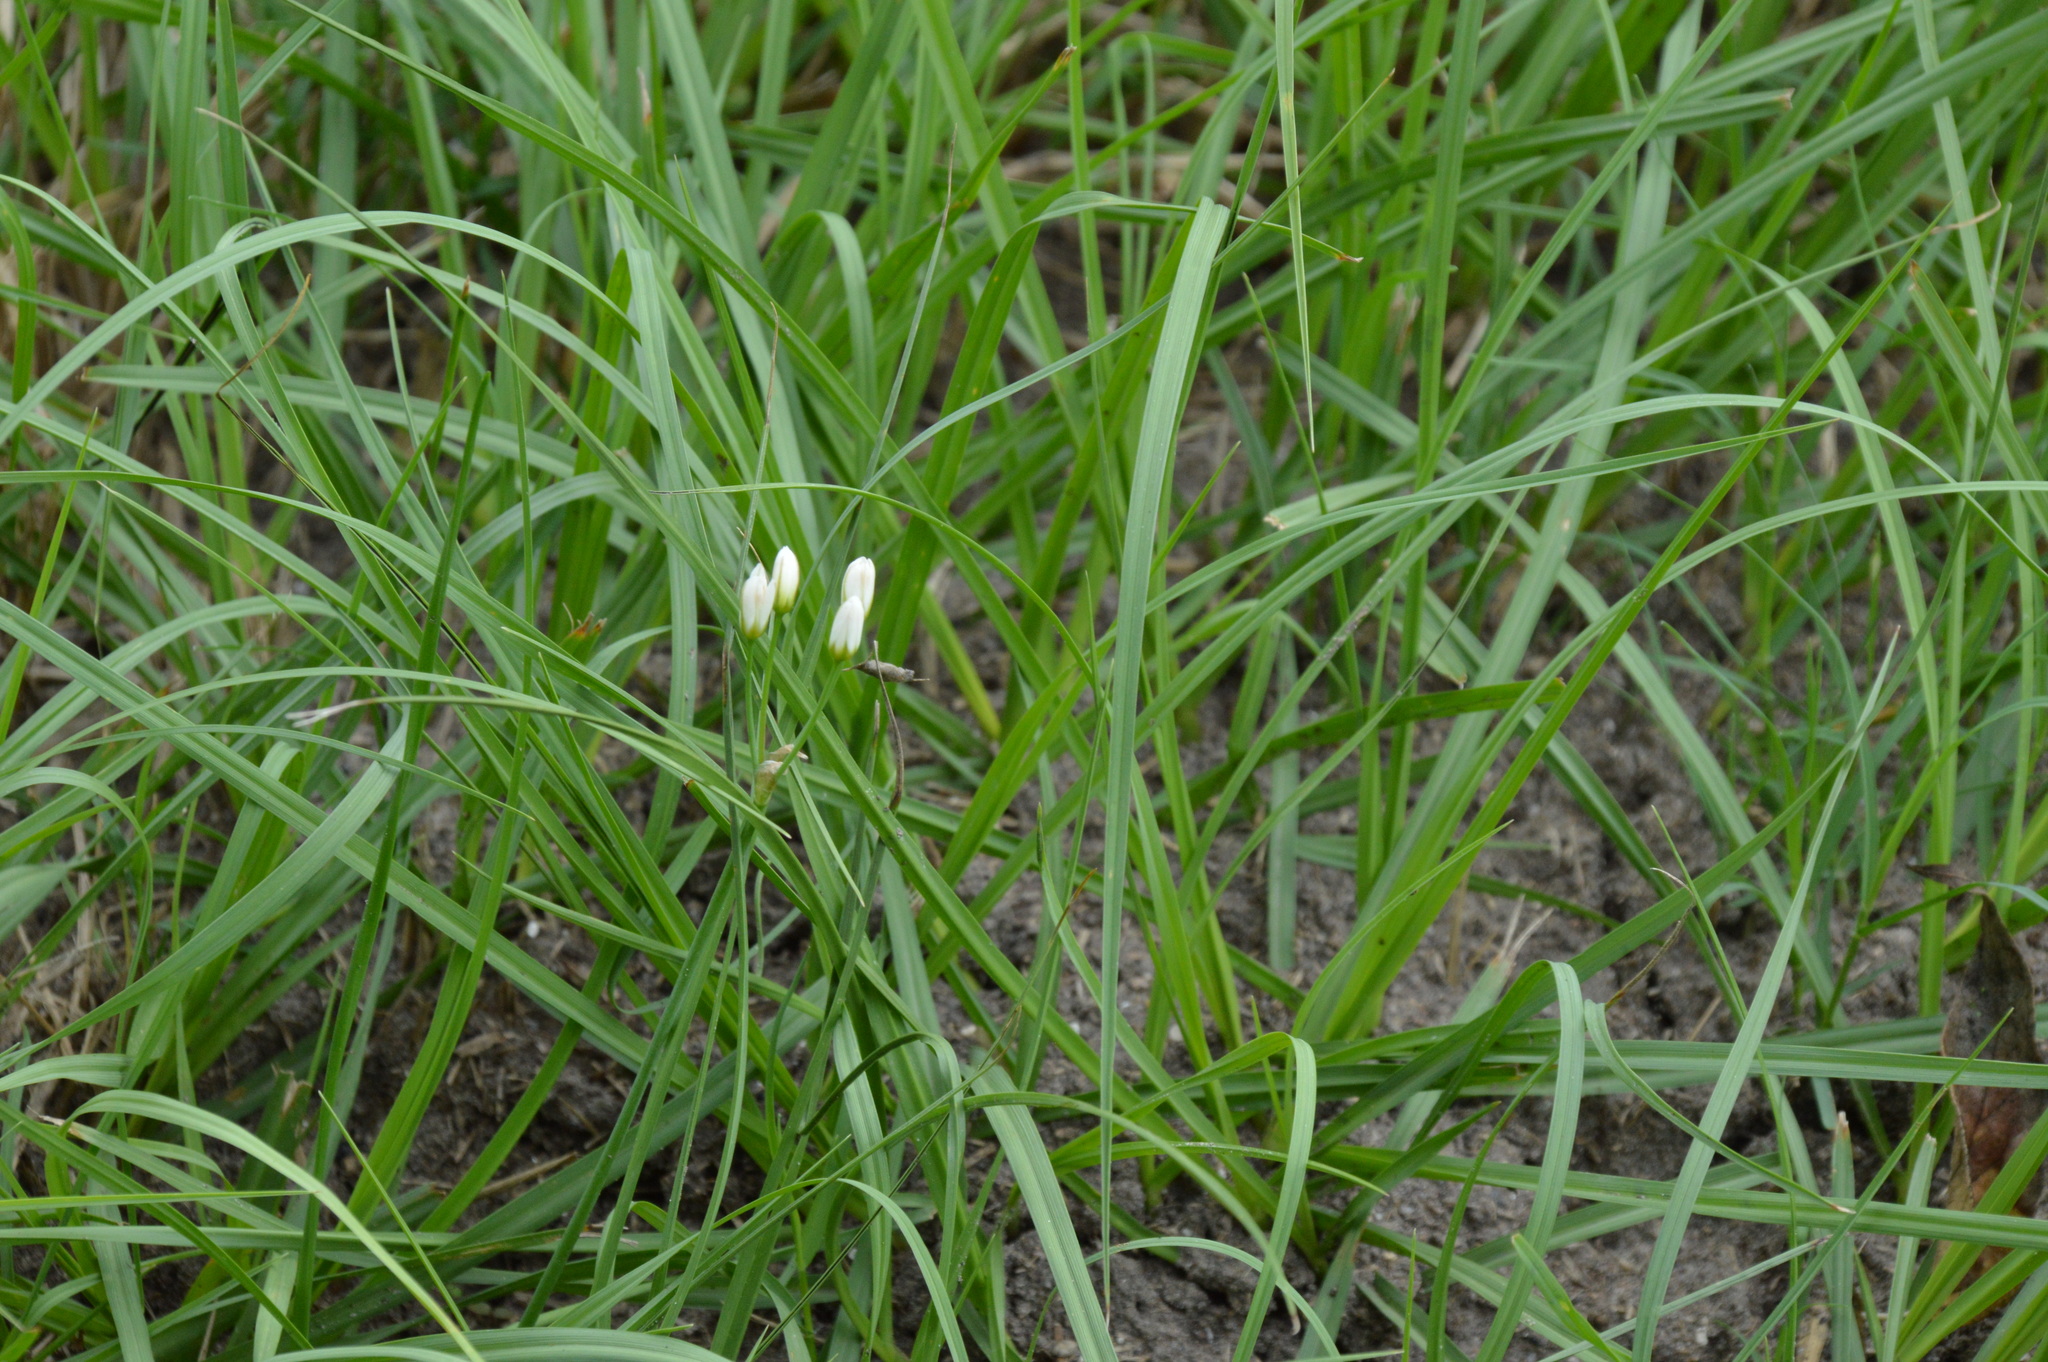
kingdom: Plantae
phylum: Tracheophyta
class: Liliopsida
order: Asparagales
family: Amaryllidaceae
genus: Nothoscordum
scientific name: Nothoscordum bivalve
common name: Crow-poison
